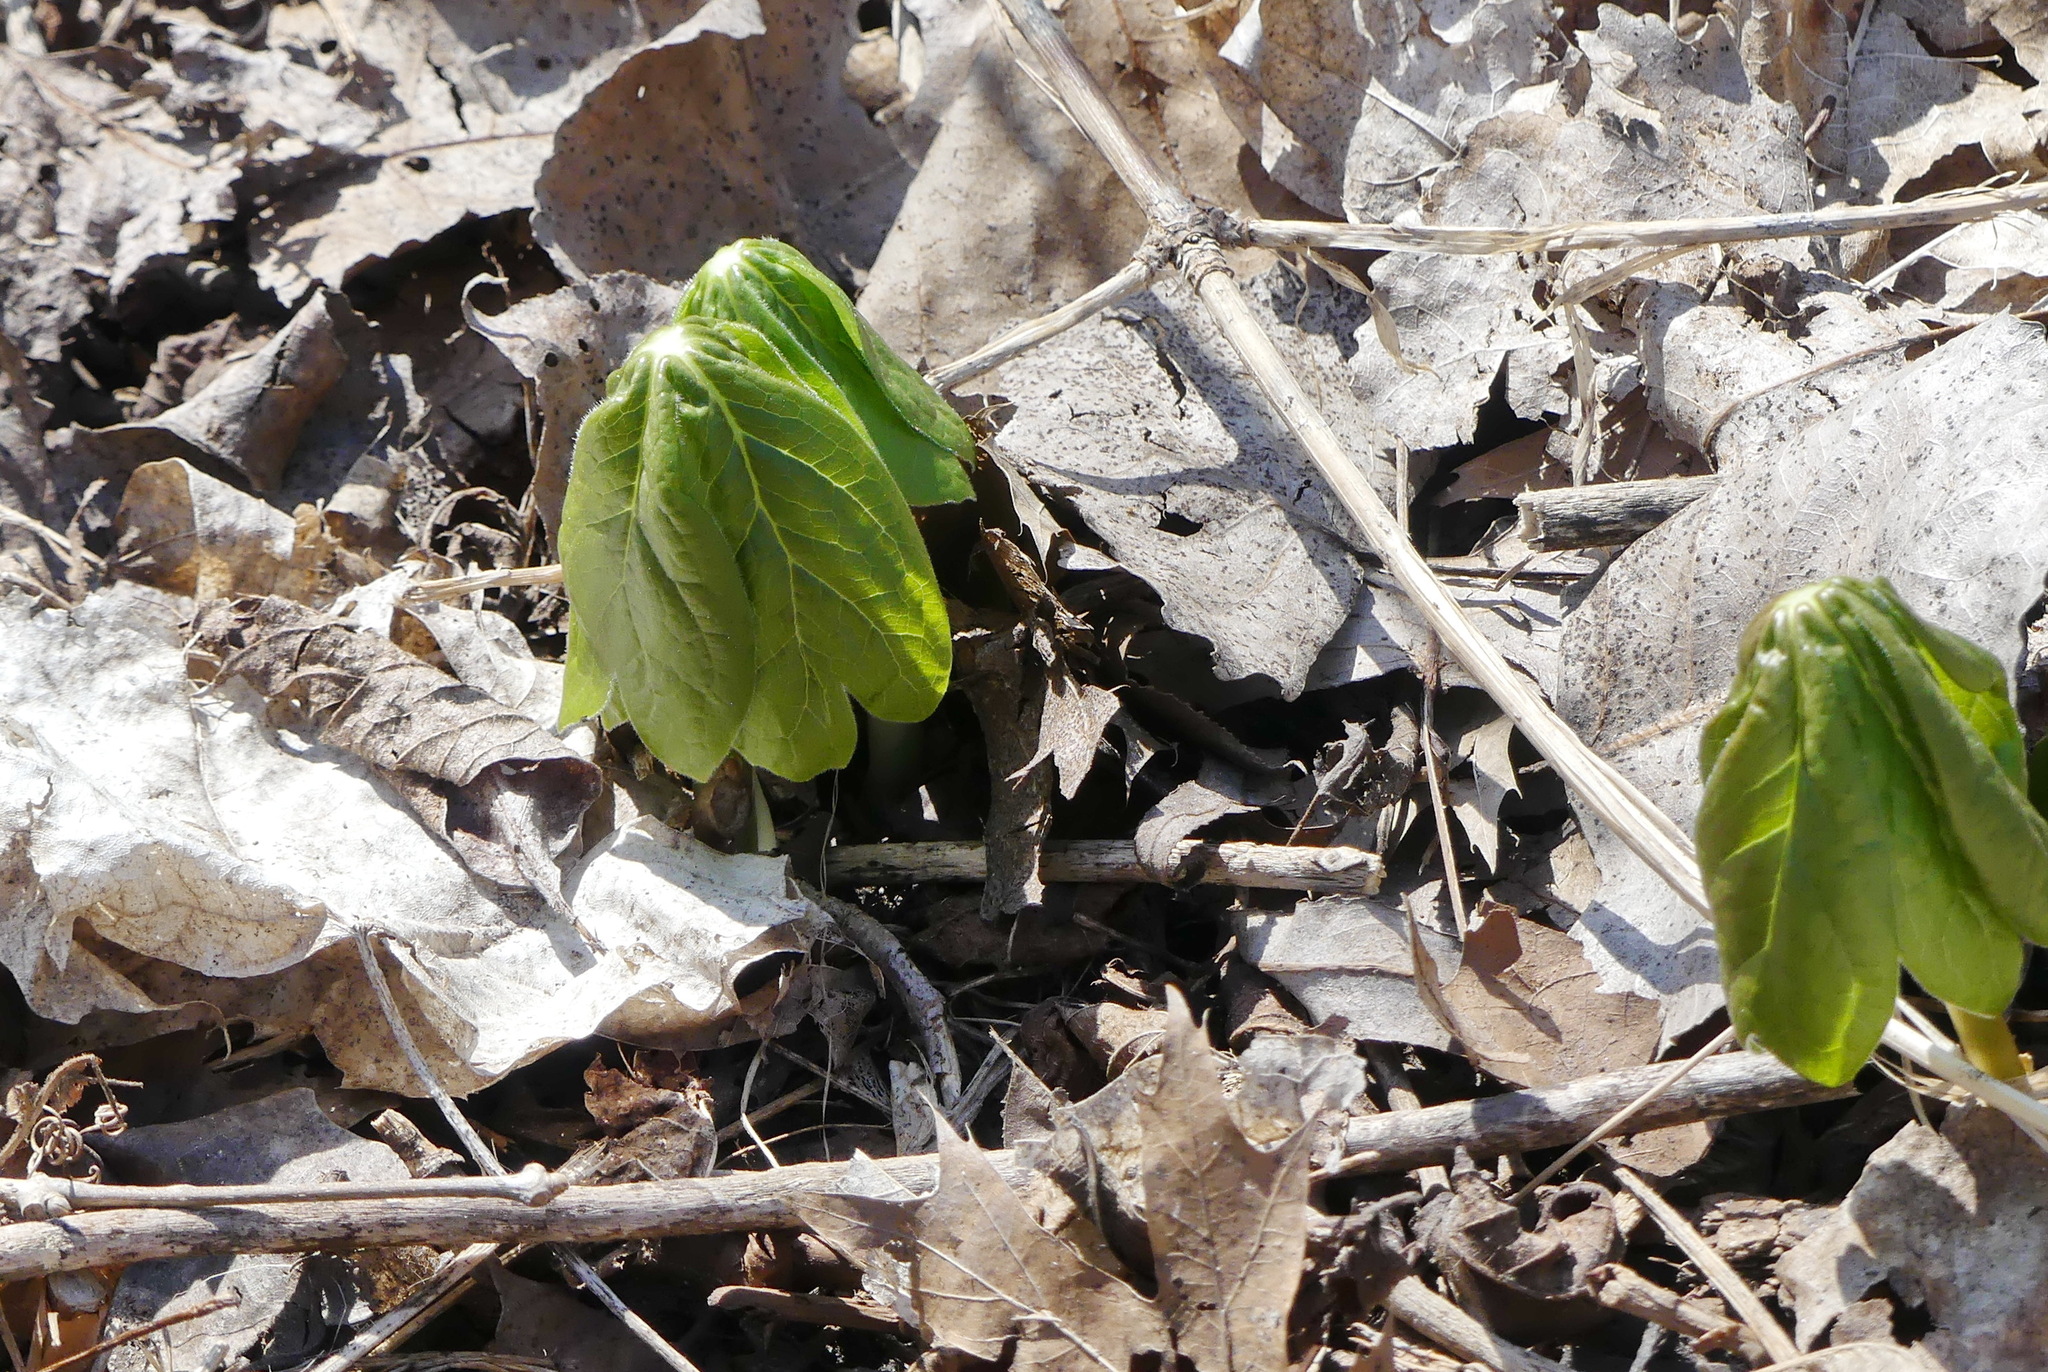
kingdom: Plantae
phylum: Tracheophyta
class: Magnoliopsida
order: Ranunculales
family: Berberidaceae
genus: Podophyllum
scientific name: Podophyllum peltatum
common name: Wild mandrake
